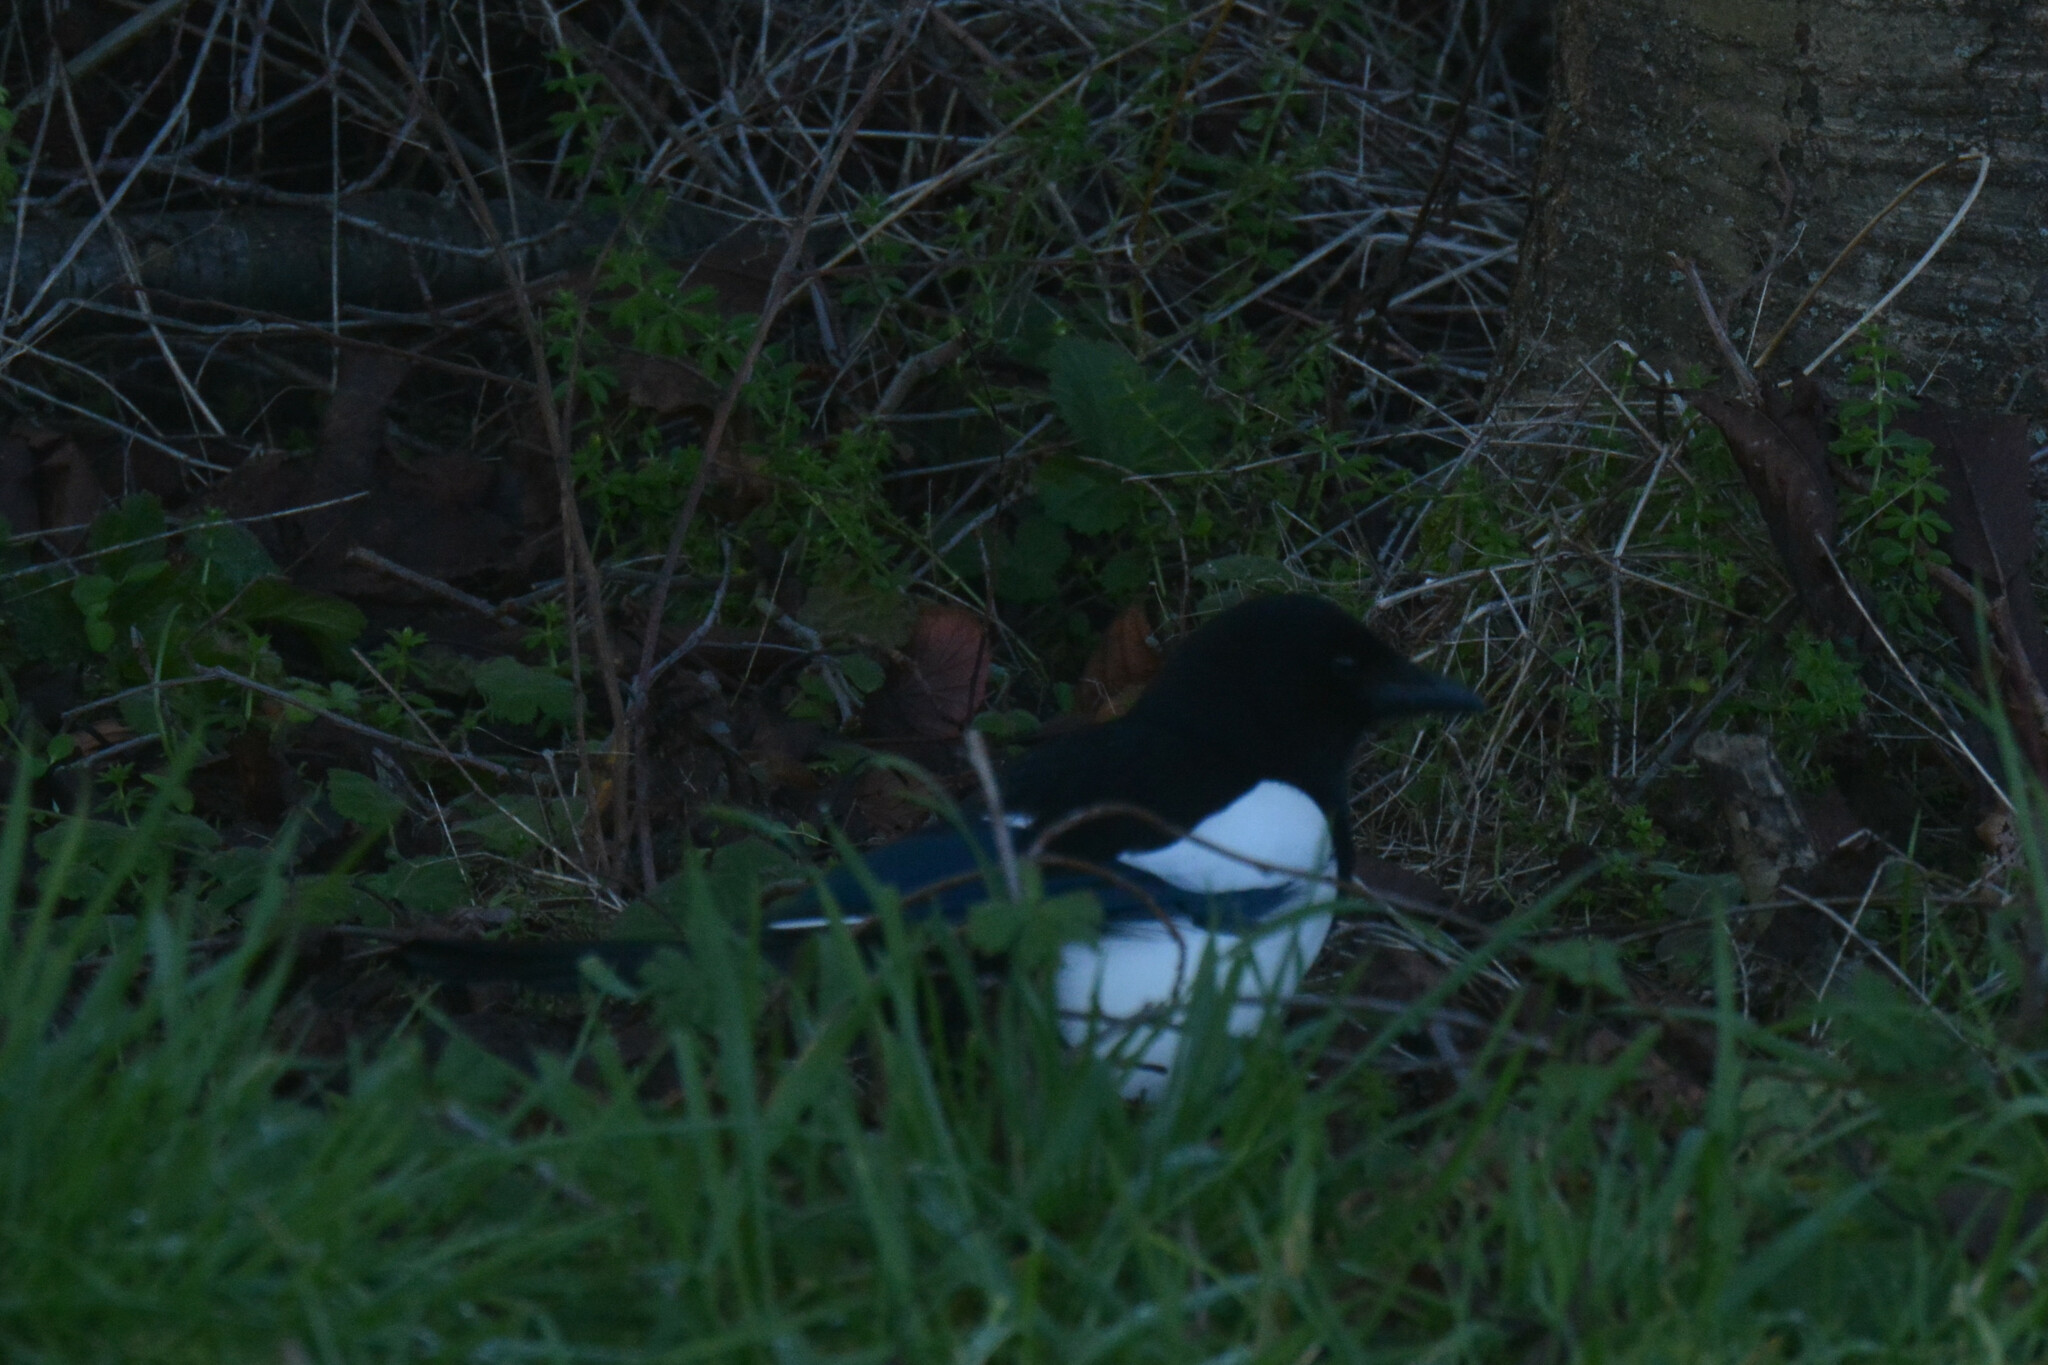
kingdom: Animalia
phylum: Chordata
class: Aves
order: Passeriformes
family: Corvidae
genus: Pica
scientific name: Pica pica
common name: Eurasian magpie
